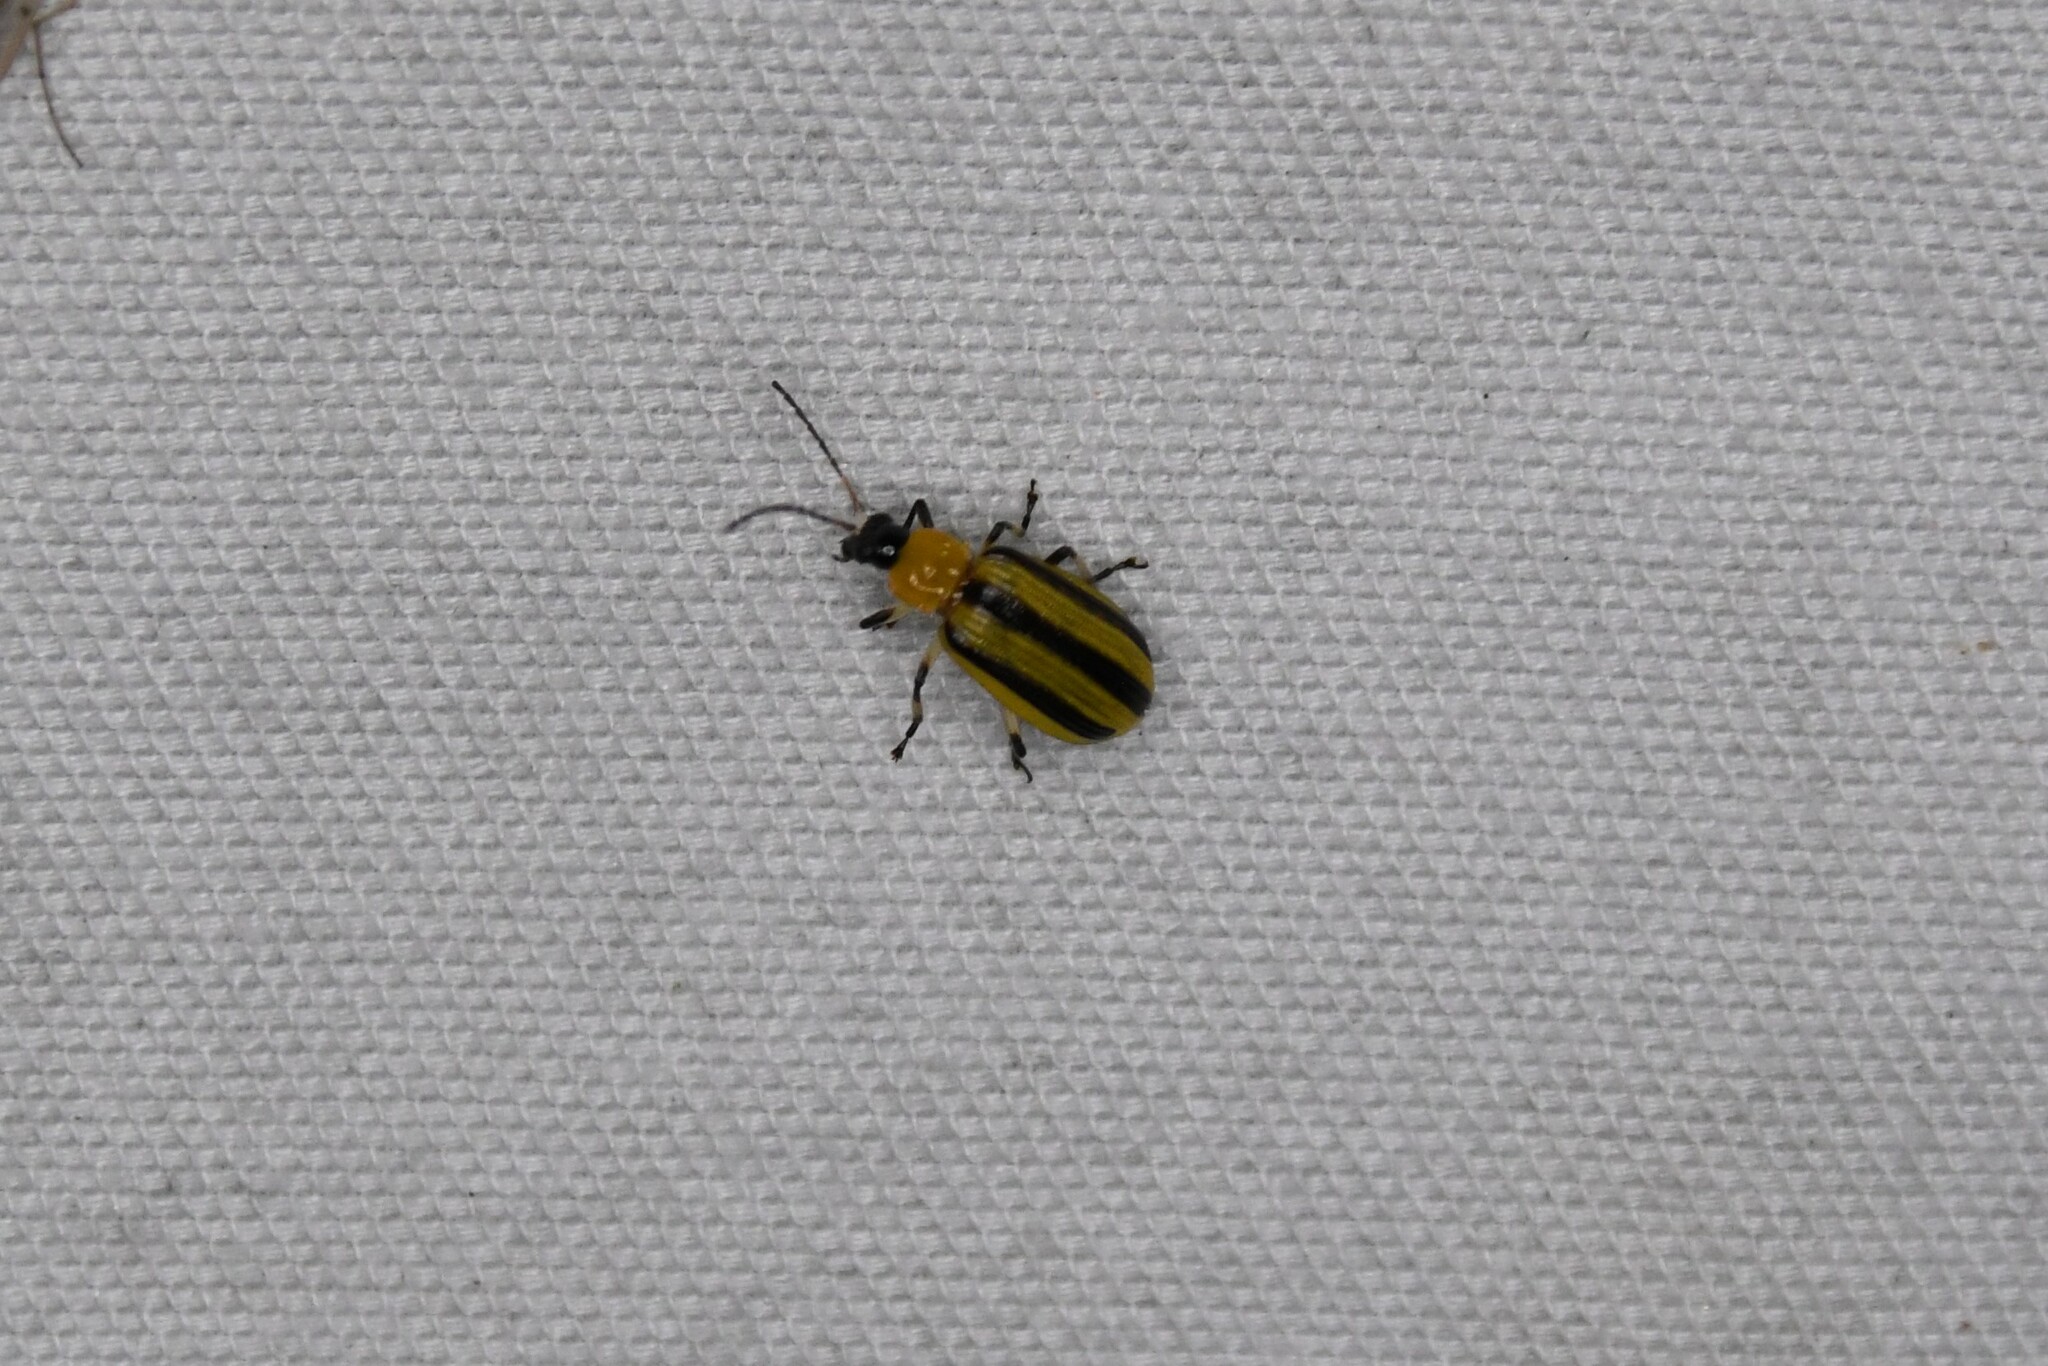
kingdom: Animalia
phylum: Arthropoda
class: Insecta
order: Coleoptera
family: Chrysomelidae
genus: Acalymma
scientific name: Acalymma vittatum
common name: Striped cucumber beetle
